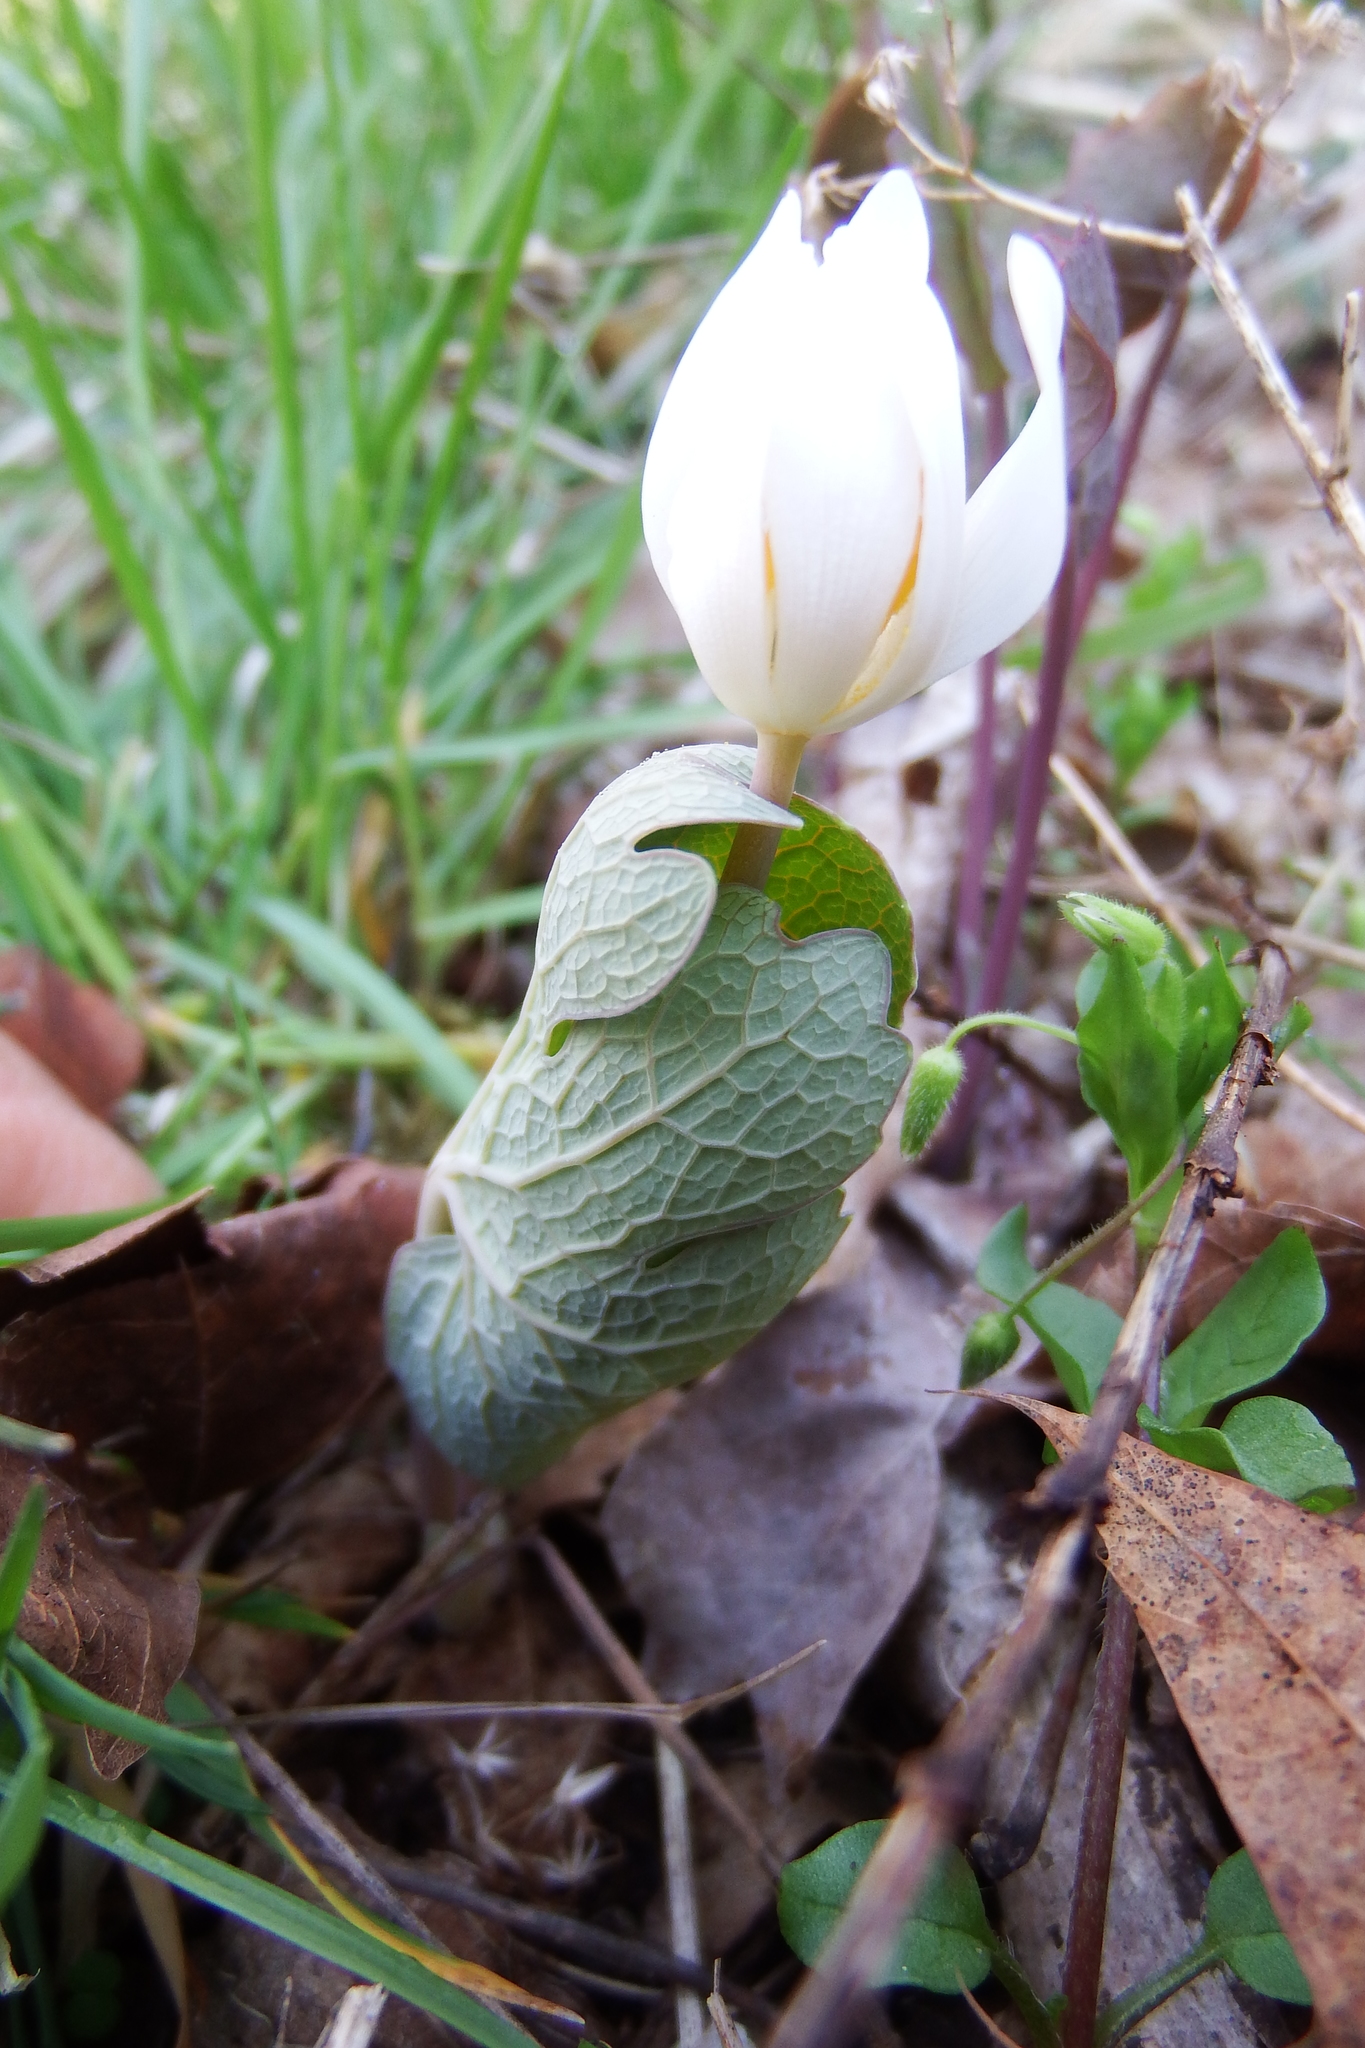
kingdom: Plantae
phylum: Tracheophyta
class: Magnoliopsida
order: Ranunculales
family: Papaveraceae
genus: Sanguinaria
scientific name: Sanguinaria canadensis
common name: Bloodroot
